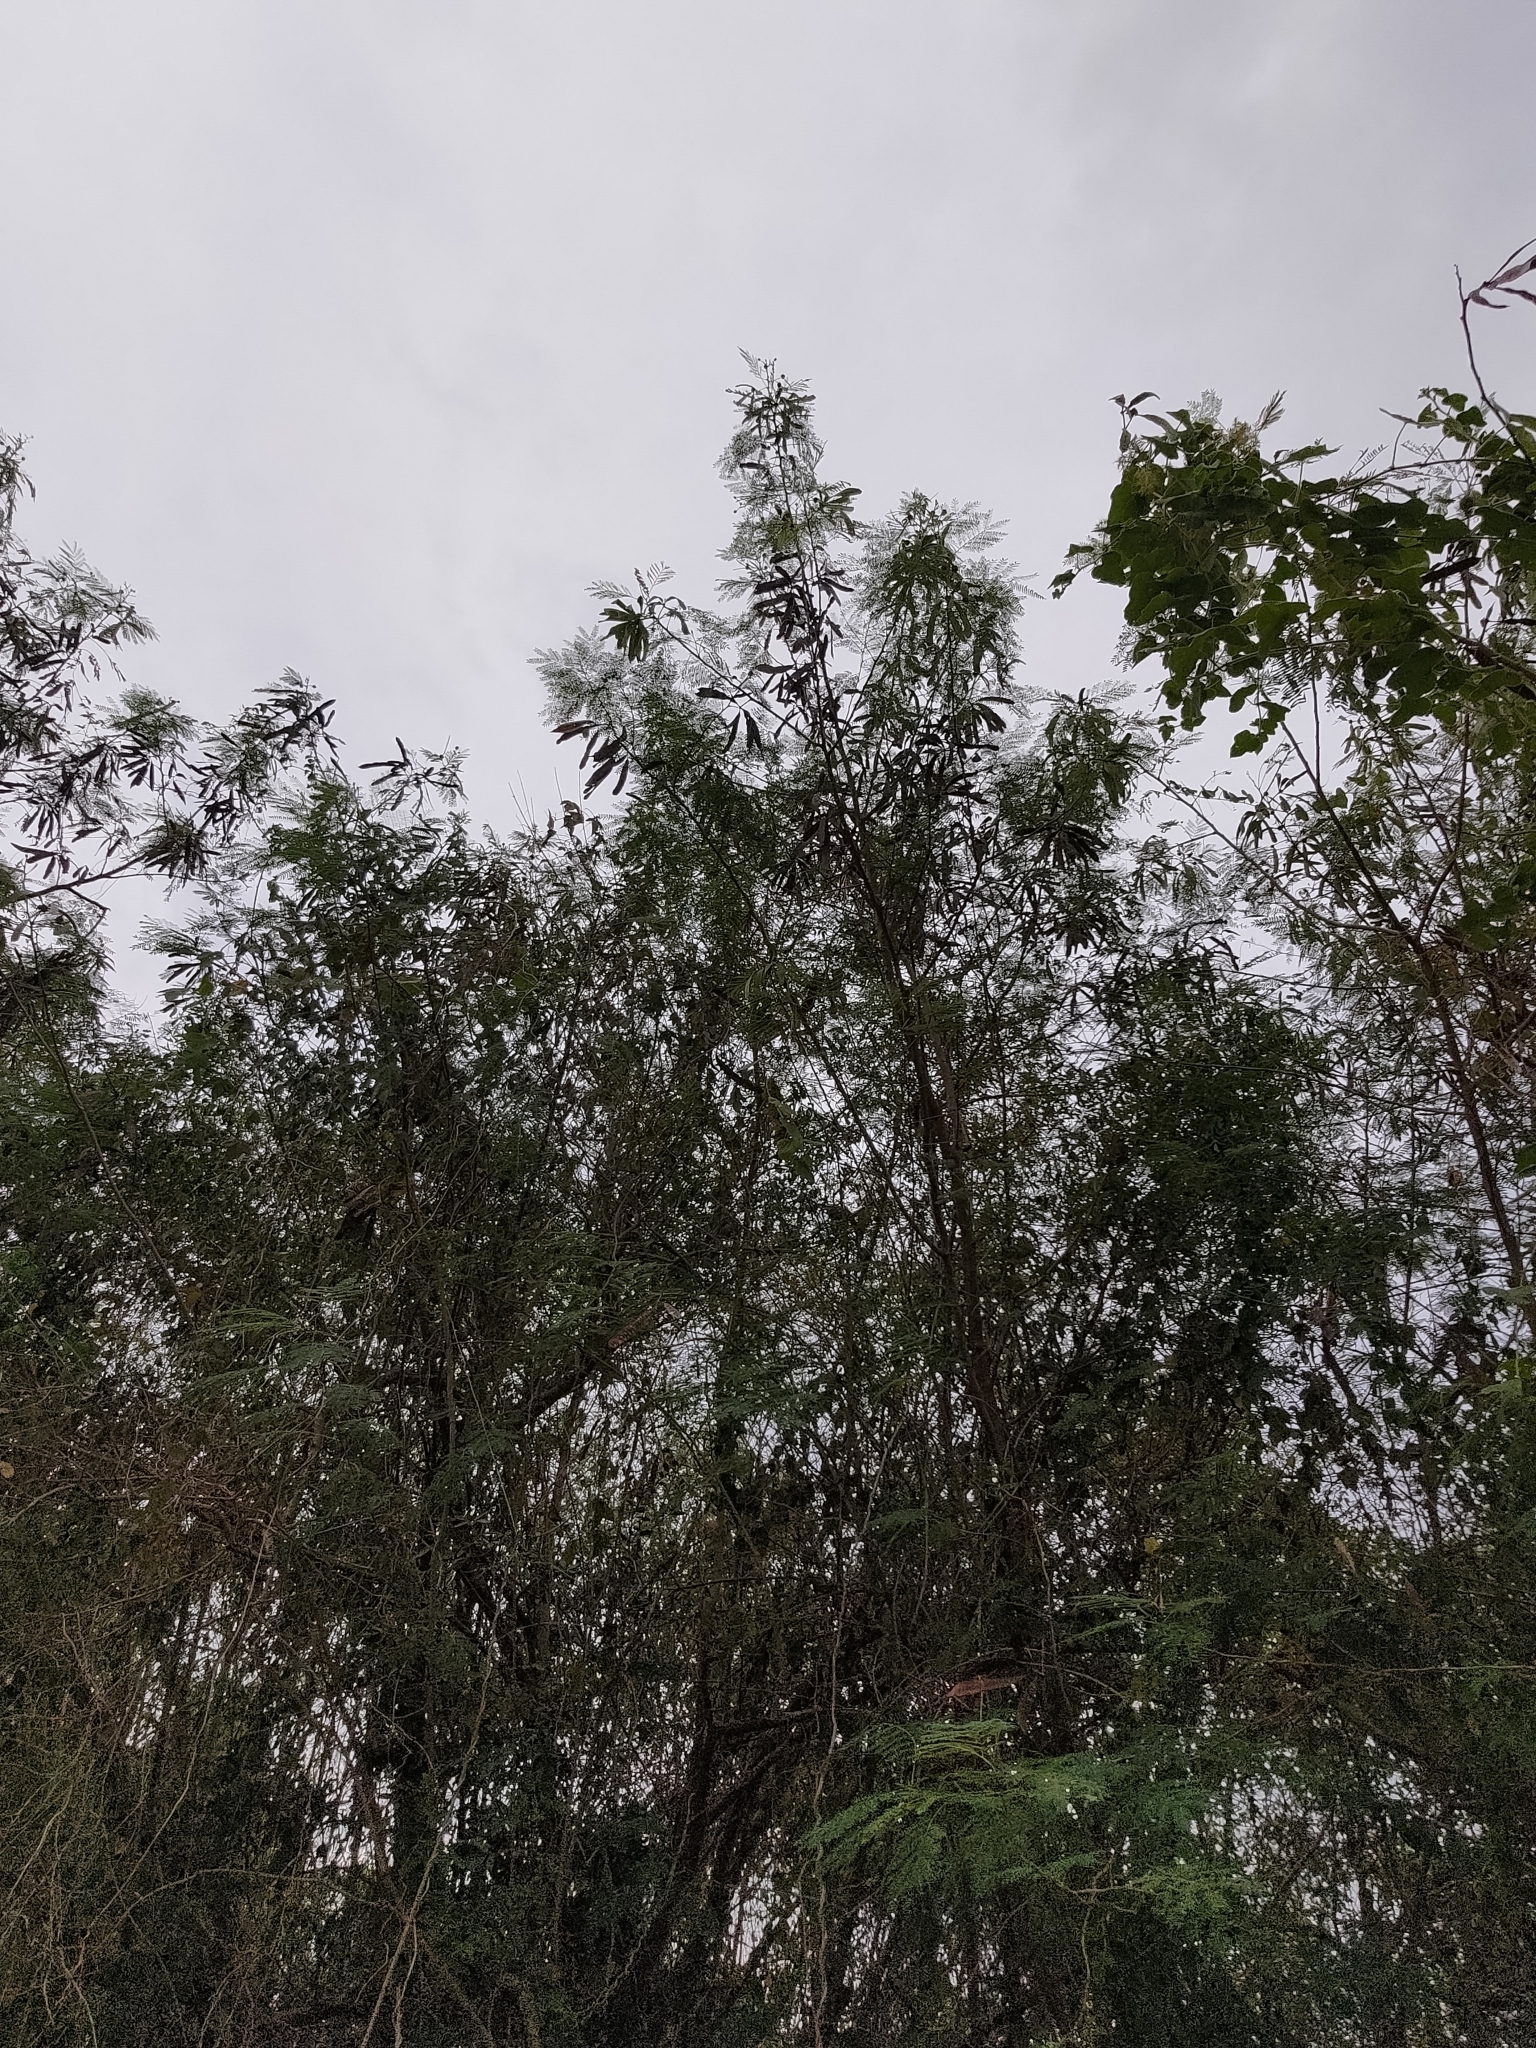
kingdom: Plantae
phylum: Tracheophyta
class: Magnoliopsida
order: Fabales
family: Fabaceae
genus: Leucaena
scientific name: Leucaena leucocephala
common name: White leadtree
